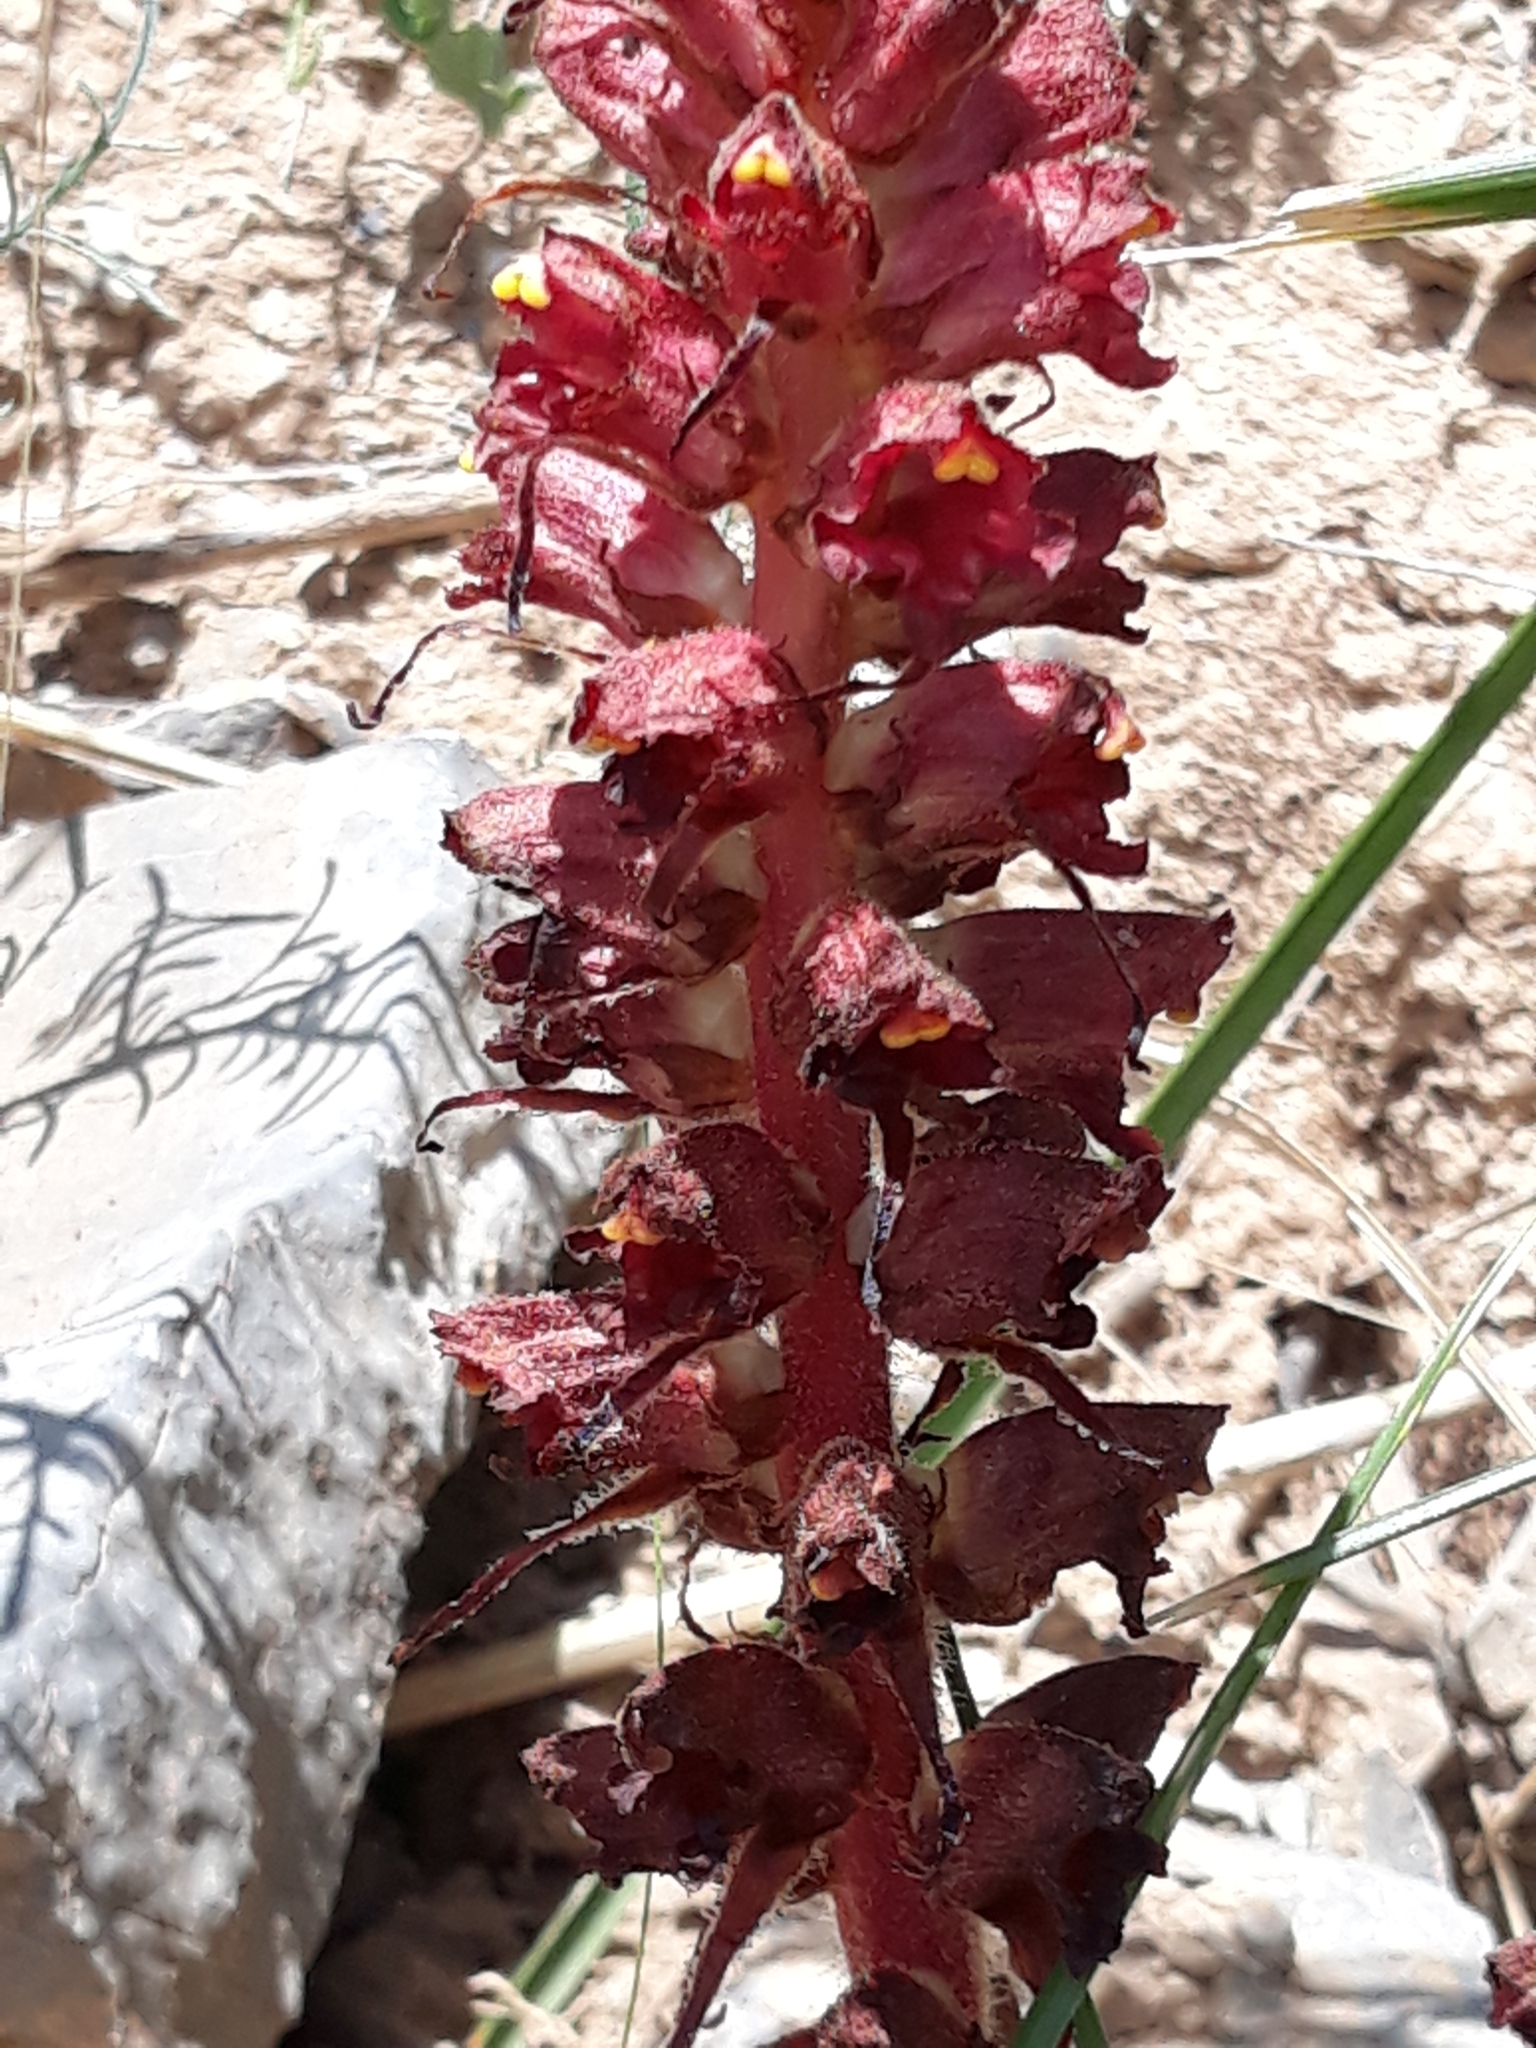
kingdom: Plantae
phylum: Tracheophyta
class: Magnoliopsida
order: Lamiales
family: Orobanchaceae
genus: Orobanche
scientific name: Orobanche variegata
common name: Variegated broomrape
